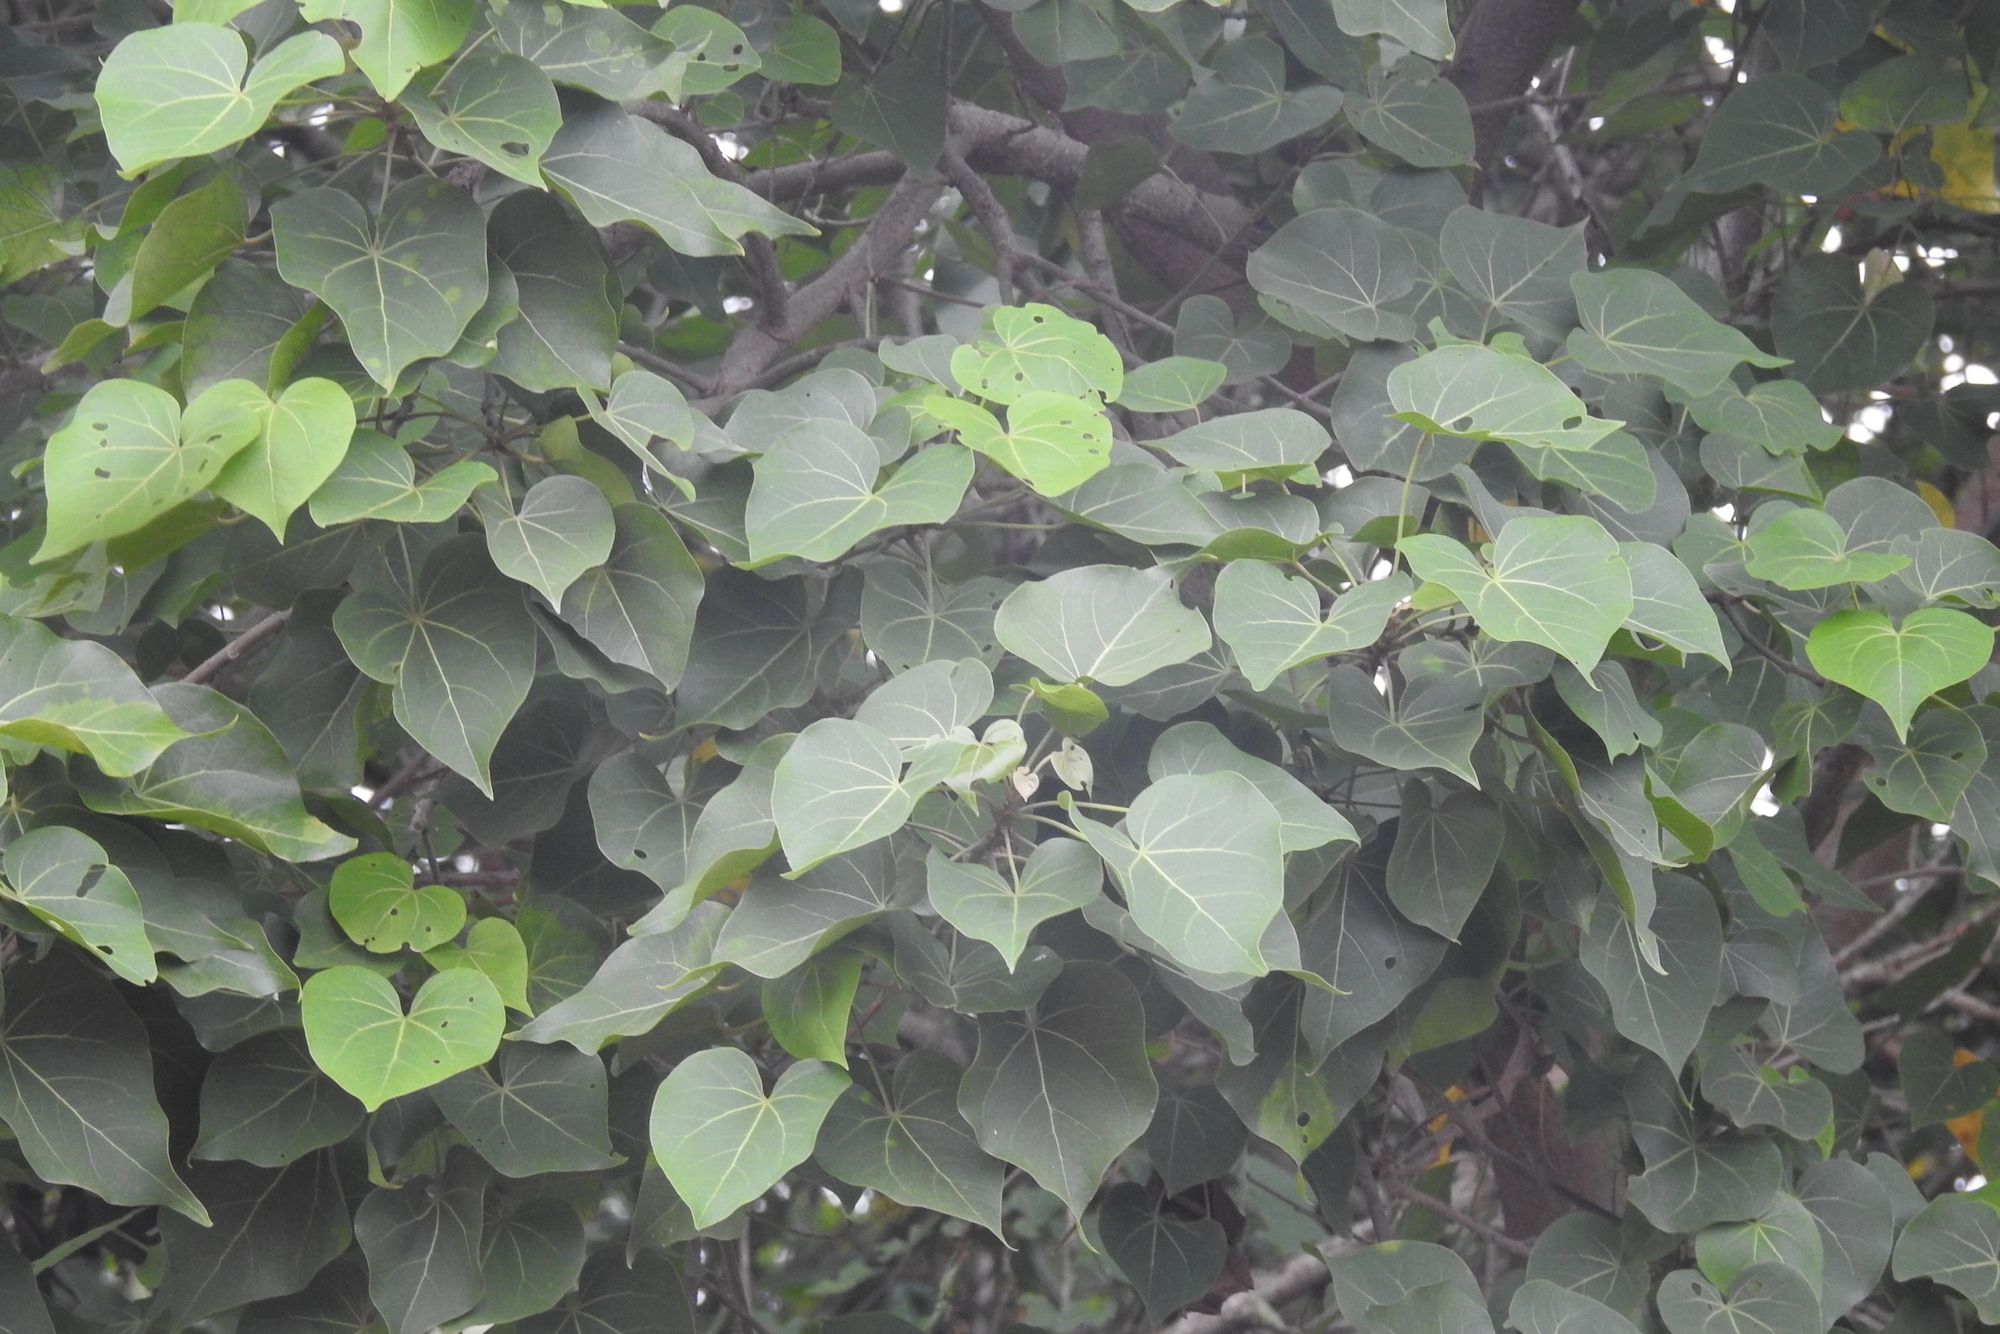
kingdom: Plantae
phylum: Tracheophyta
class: Magnoliopsida
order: Malvales
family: Malvaceae
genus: Thespesia
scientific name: Thespesia populnea
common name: Seaside mahoe
